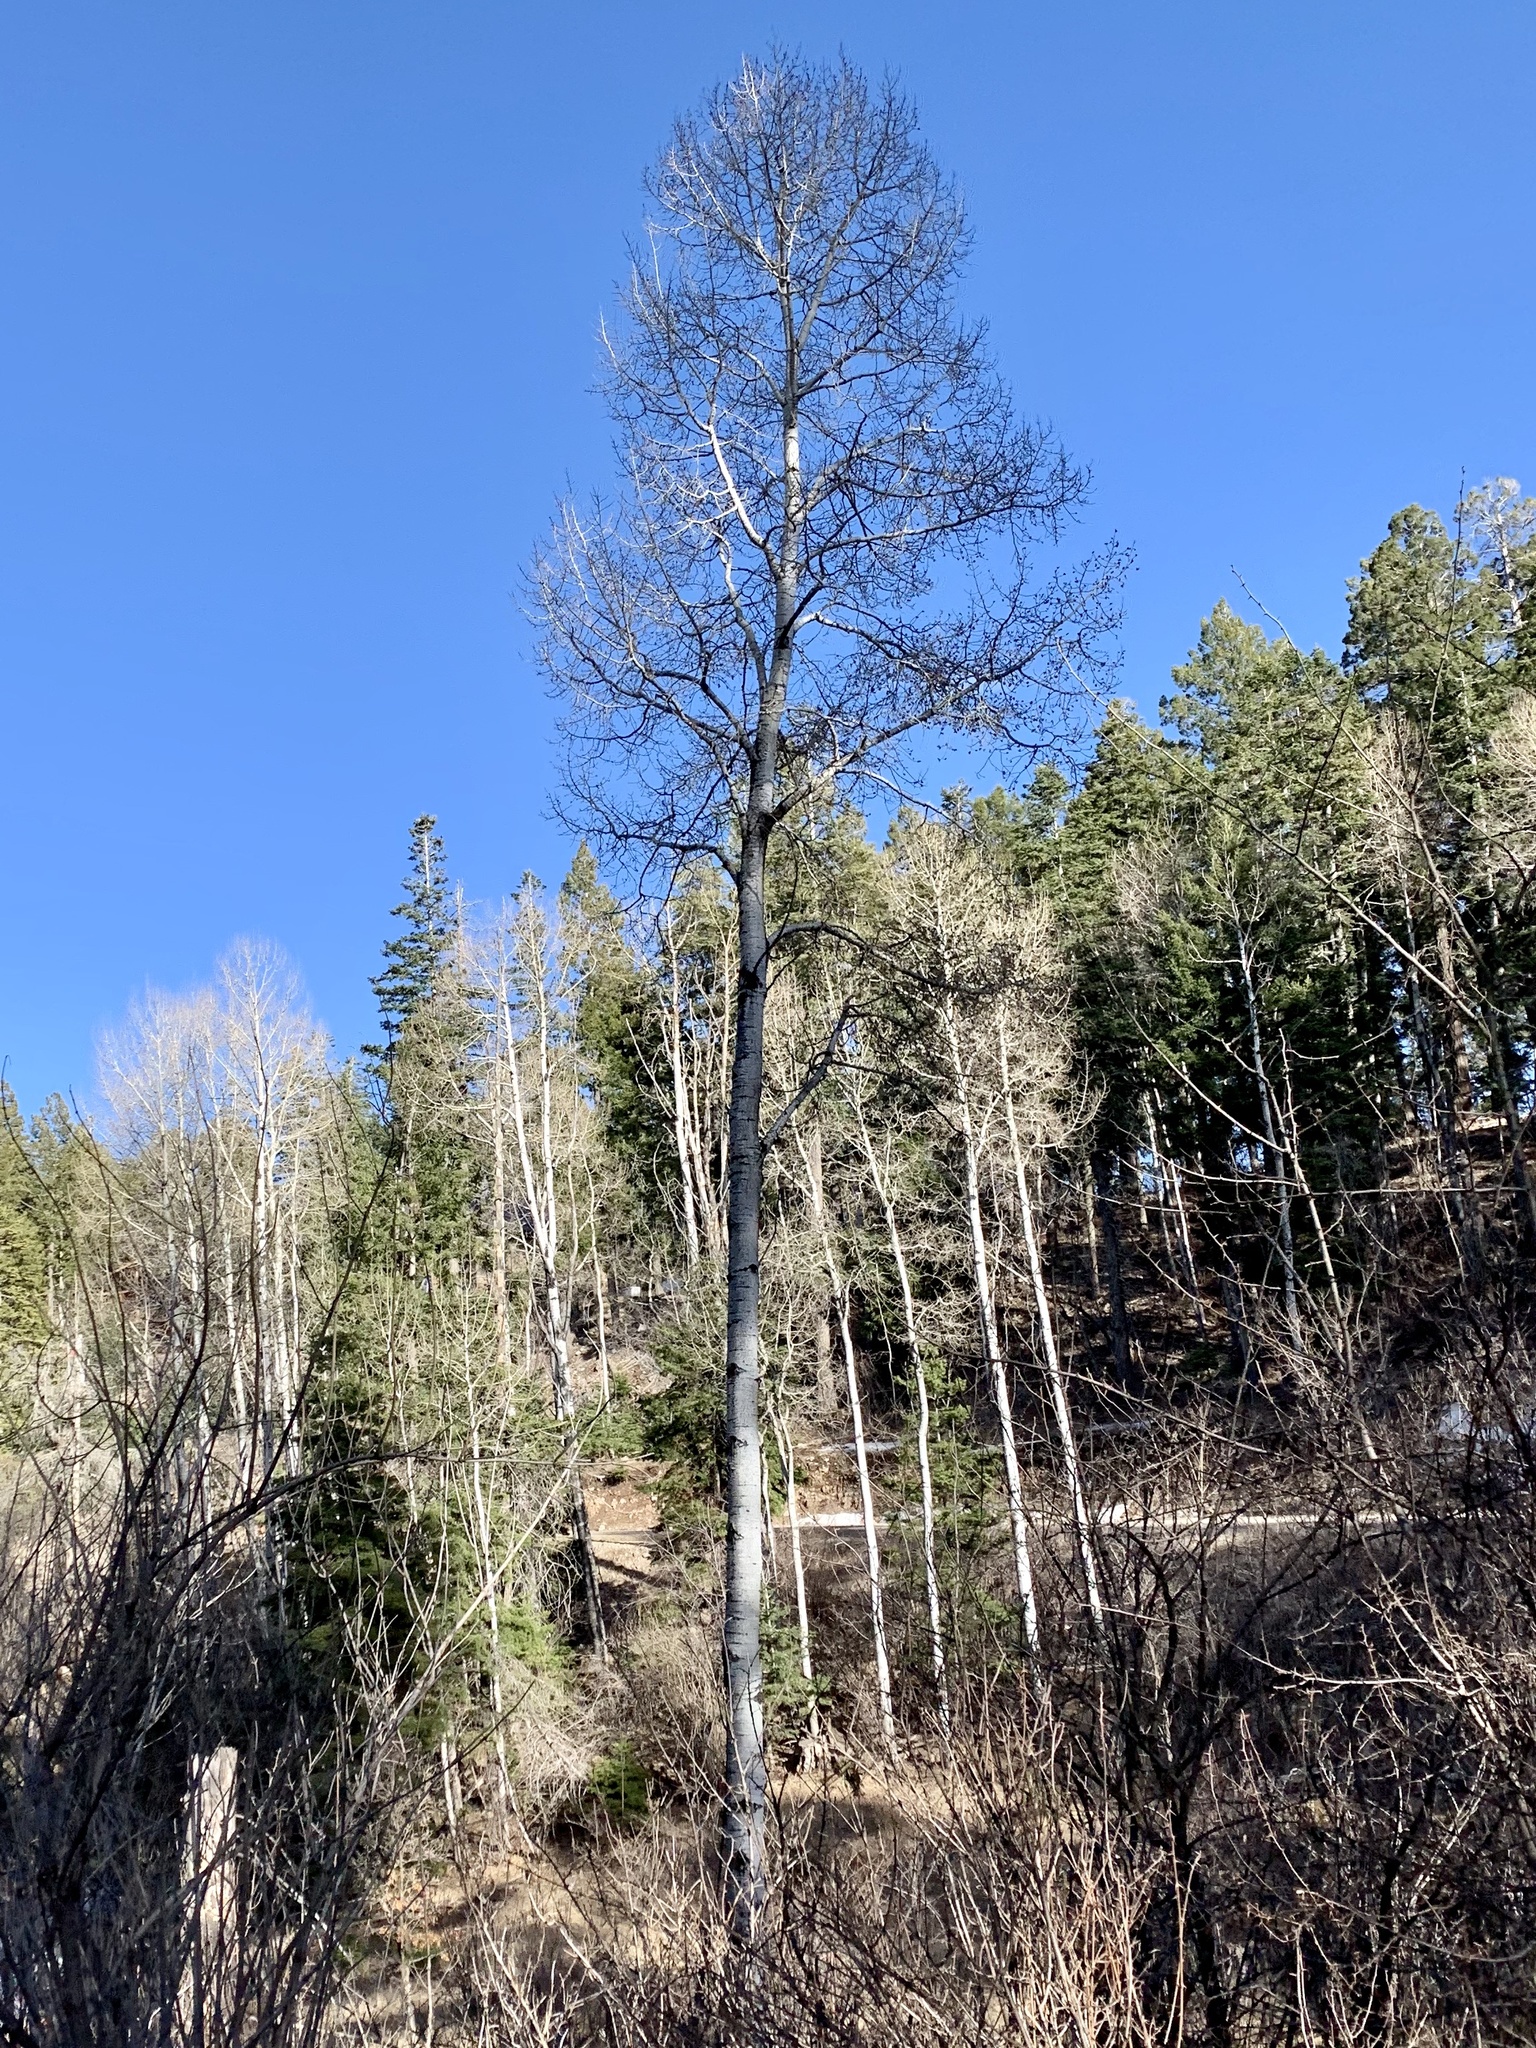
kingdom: Plantae
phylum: Tracheophyta
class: Magnoliopsida
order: Malpighiales
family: Salicaceae
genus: Populus
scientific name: Populus tremuloides
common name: Quaking aspen
